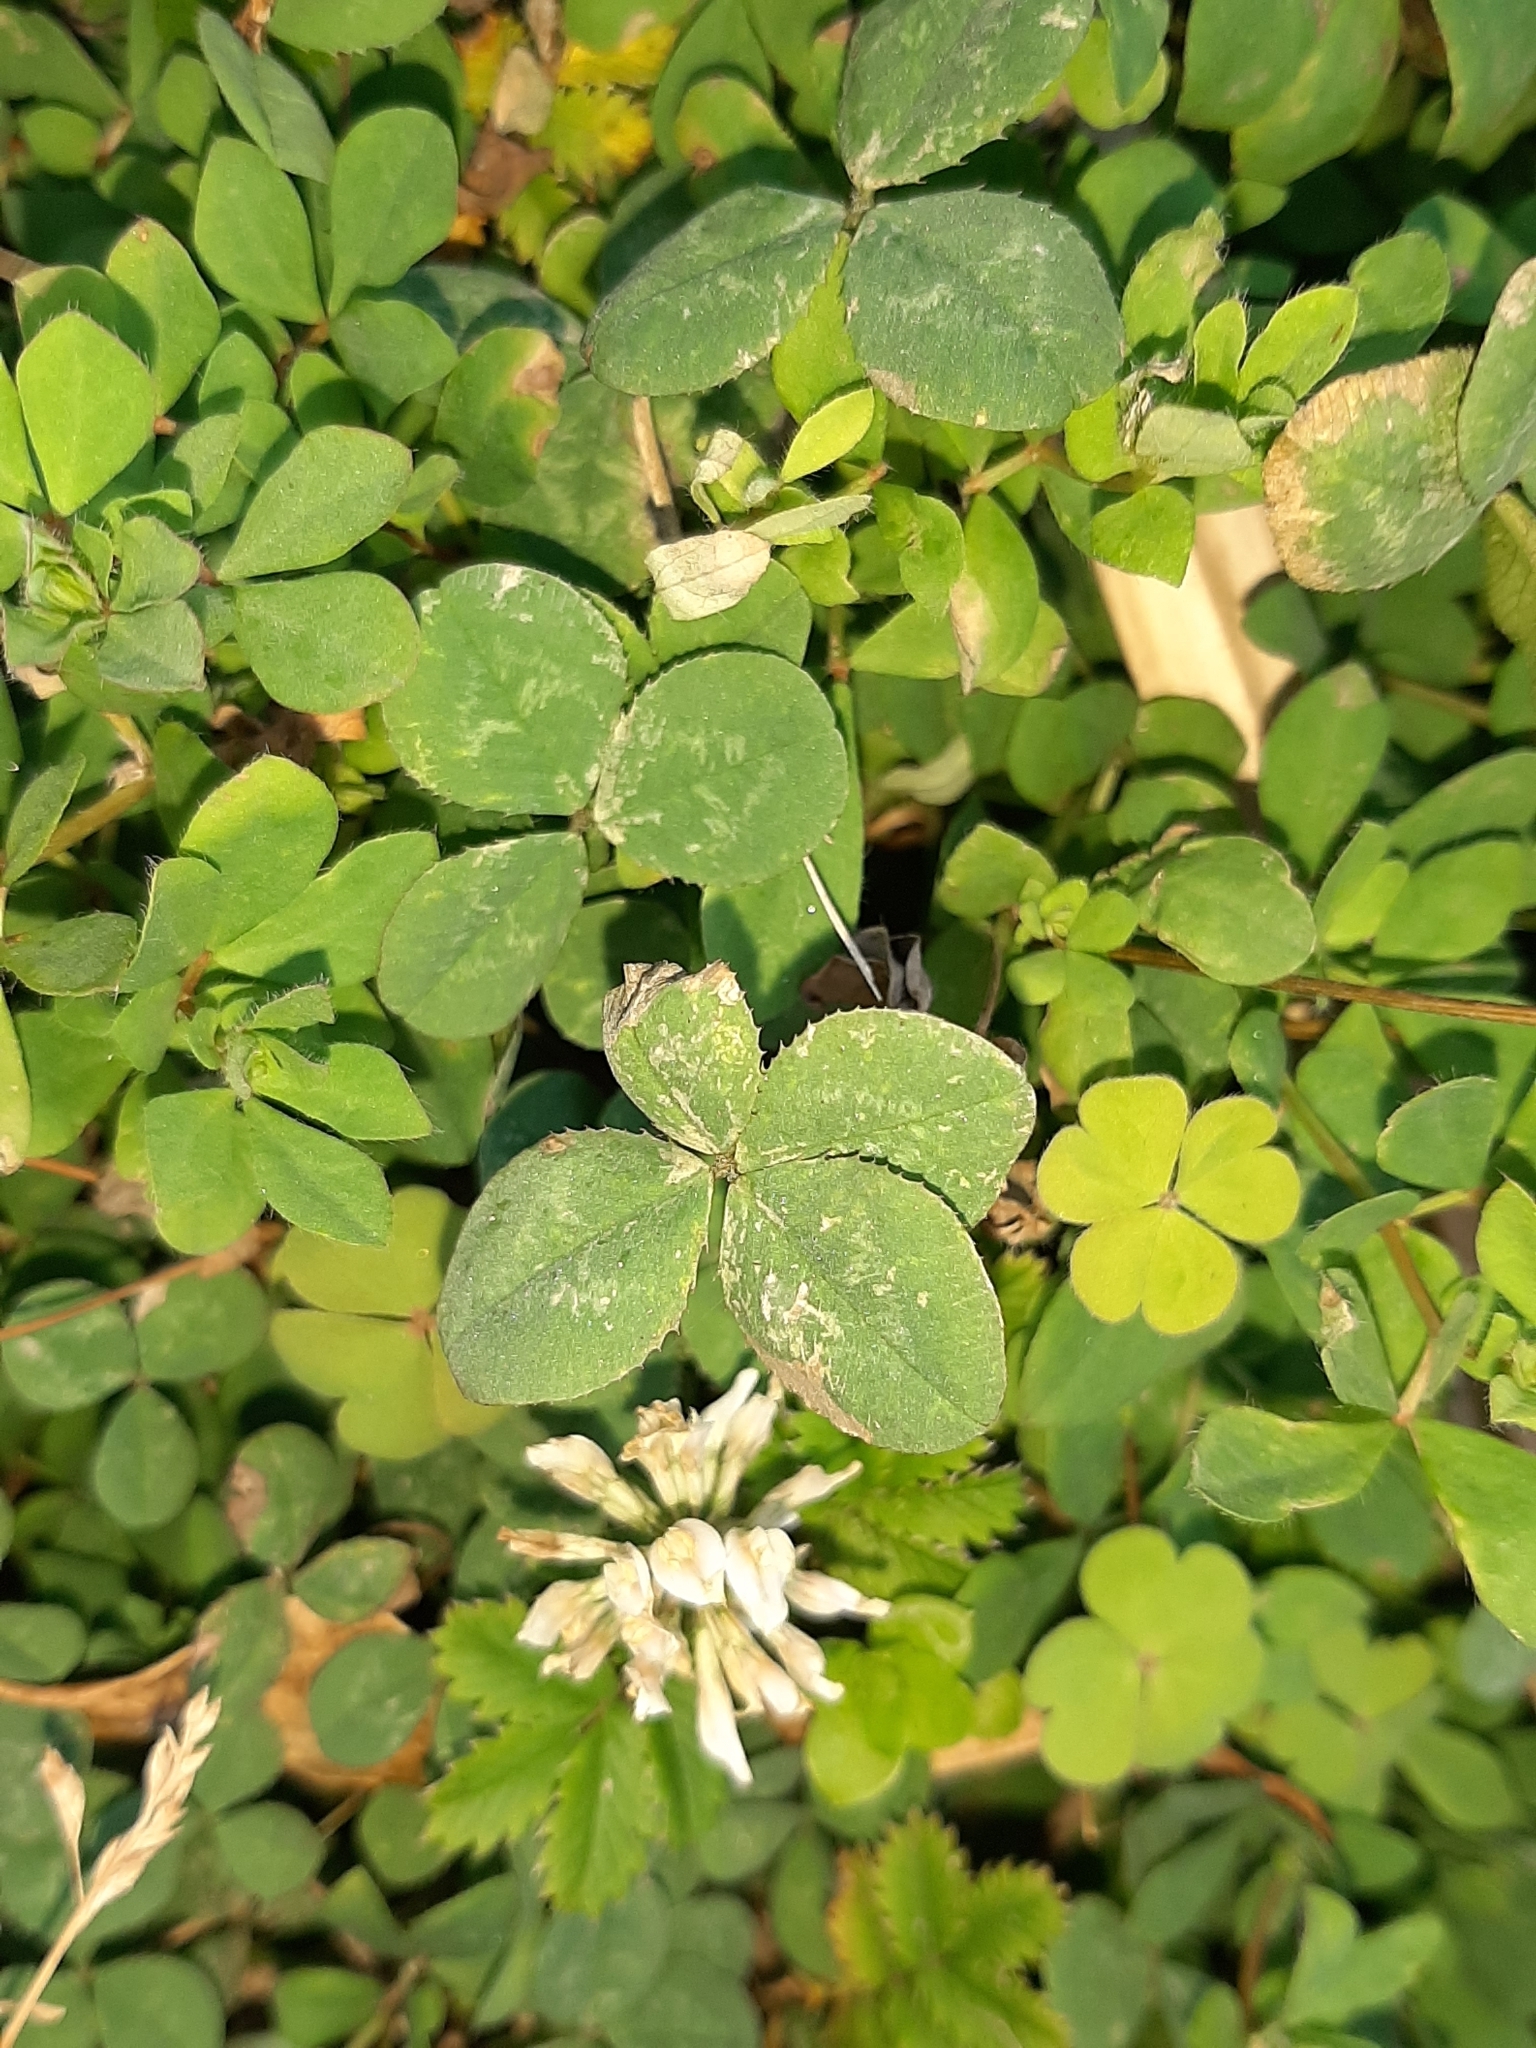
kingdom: Plantae
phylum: Tracheophyta
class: Magnoliopsida
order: Fabales
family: Fabaceae
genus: Trifolium
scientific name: Trifolium repens
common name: White clover
